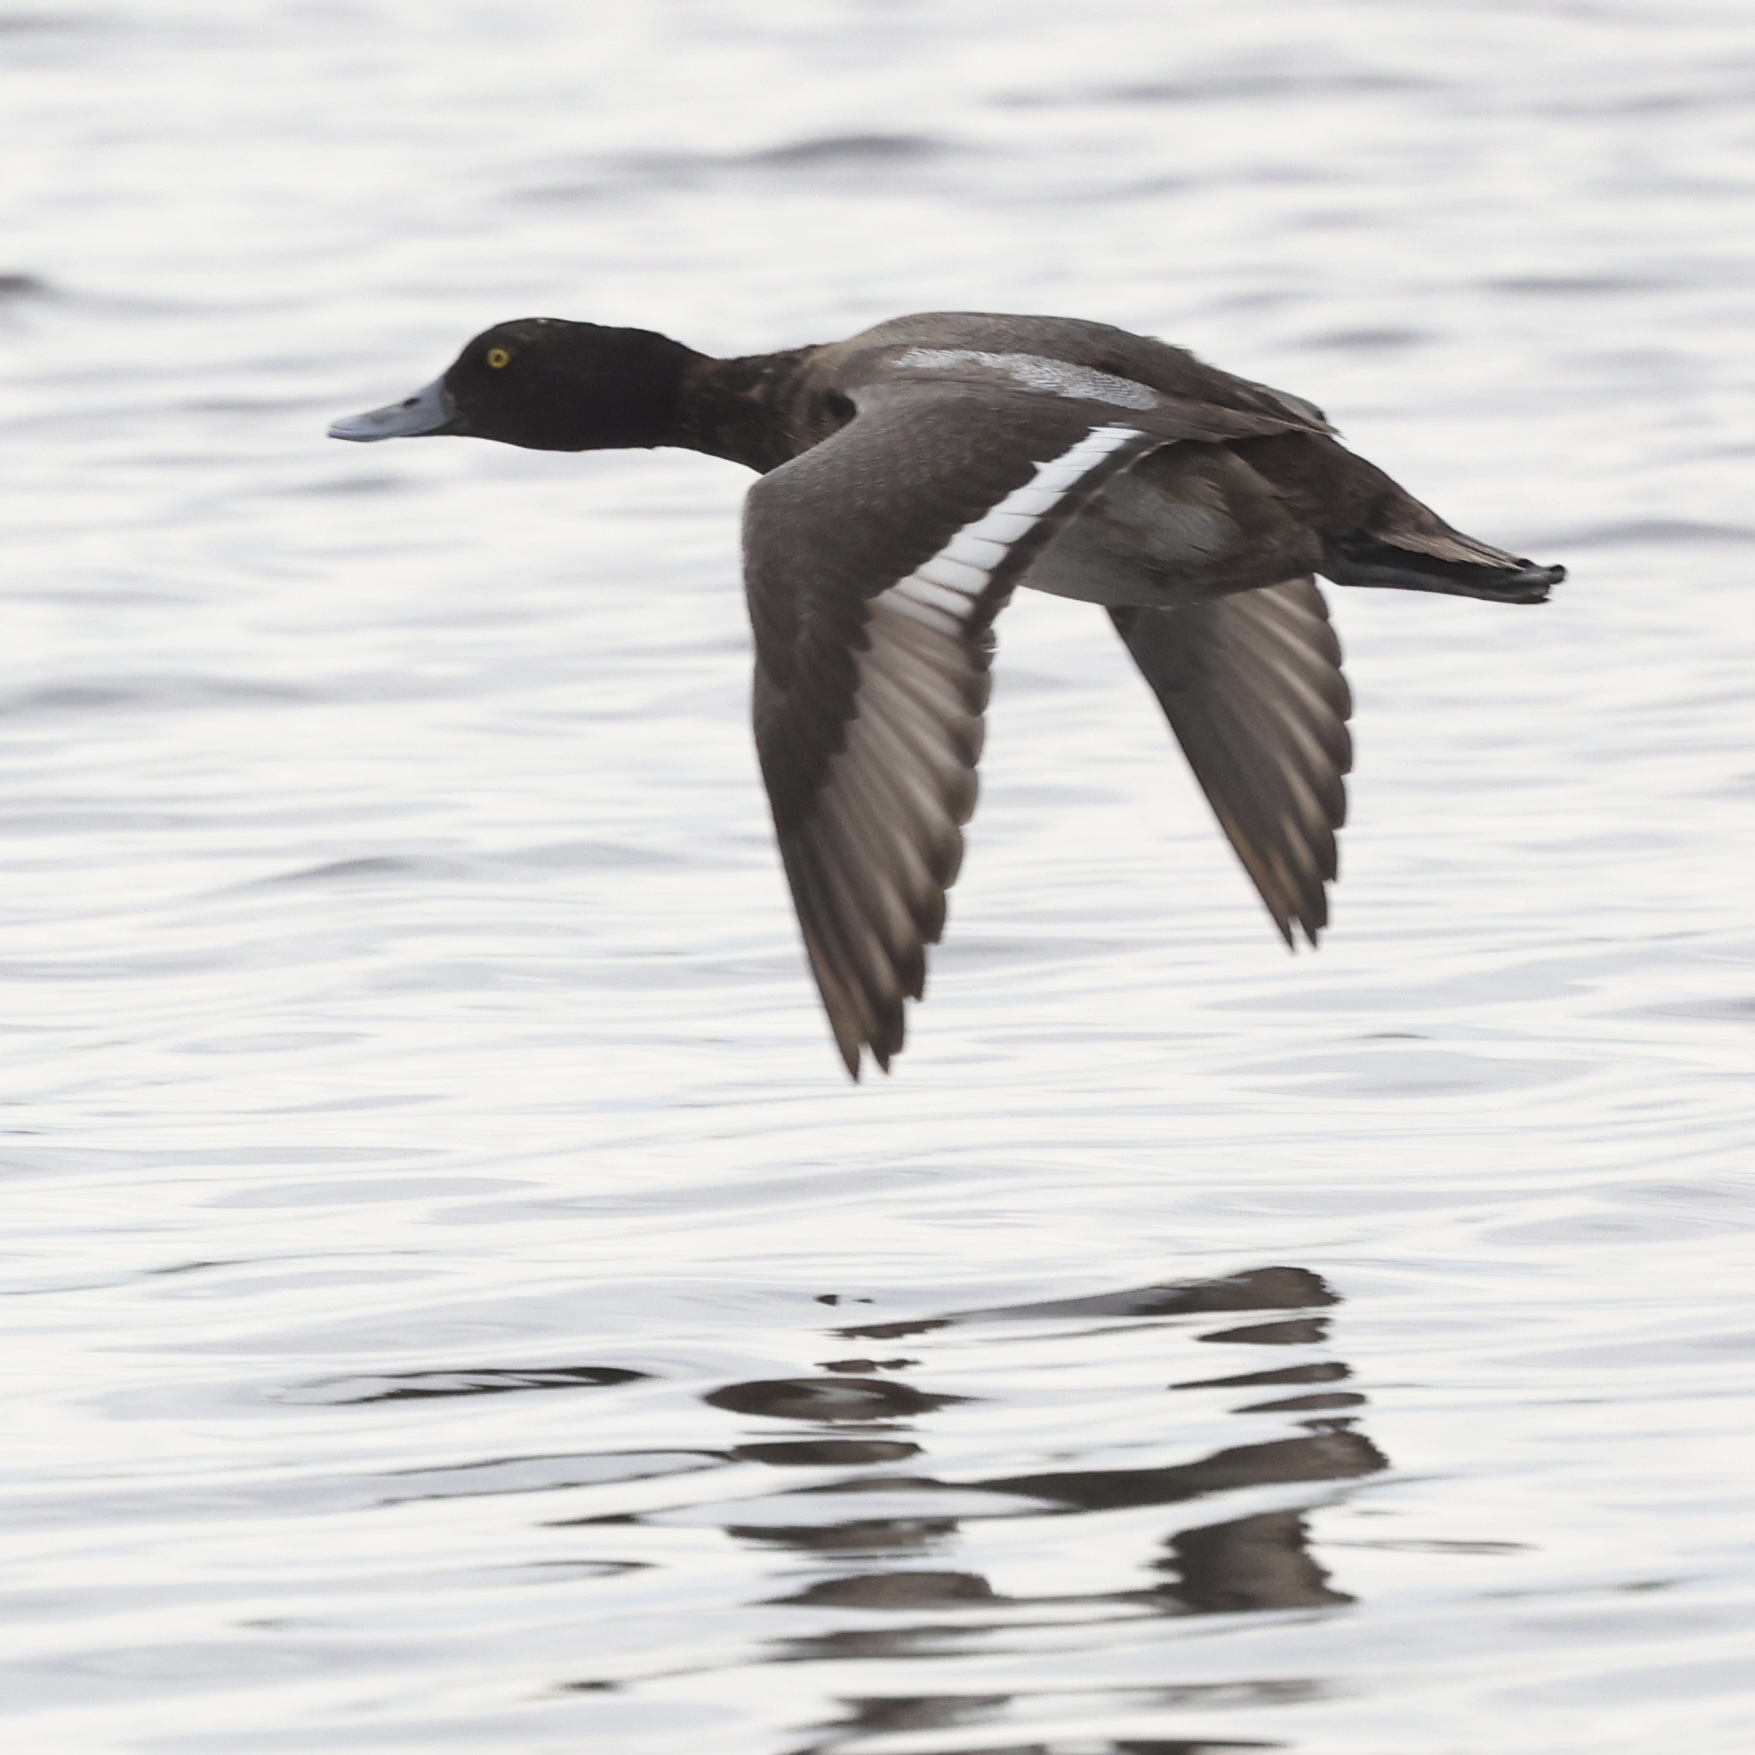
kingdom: Animalia
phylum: Chordata
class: Aves
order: Anseriformes
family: Anatidae
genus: Aythya
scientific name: Aythya affinis
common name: Lesser scaup
